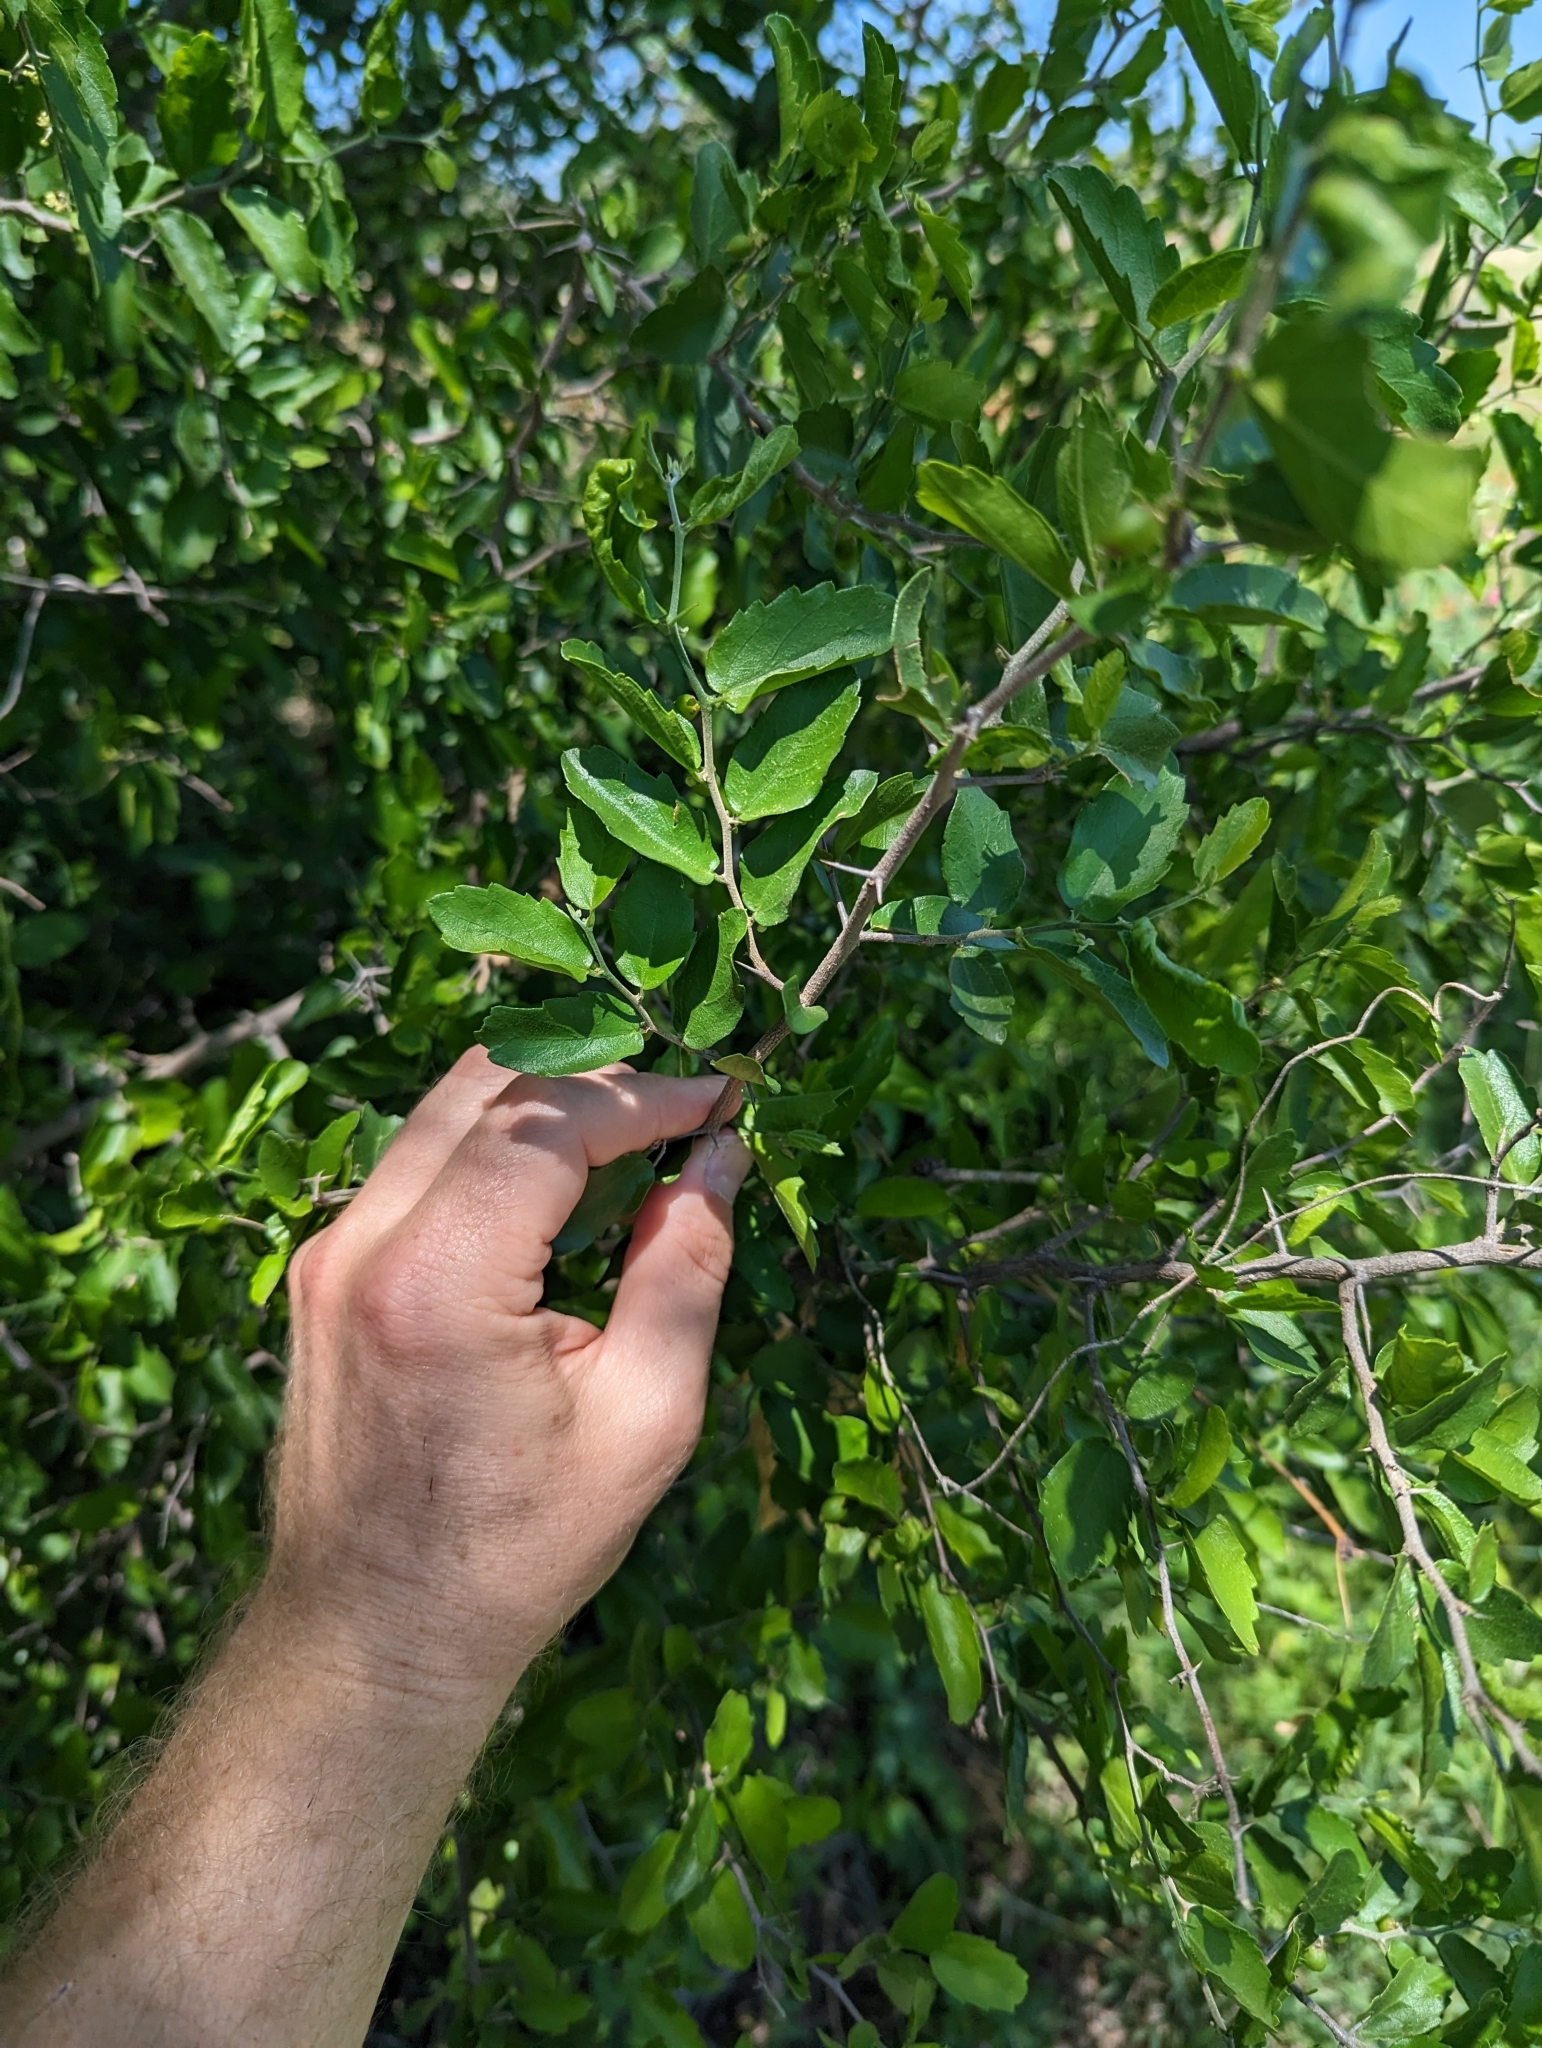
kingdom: Plantae
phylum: Tracheophyta
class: Magnoliopsida
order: Rosales
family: Cannabaceae
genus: Celtis
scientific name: Celtis pallida
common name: Desert hackberry
